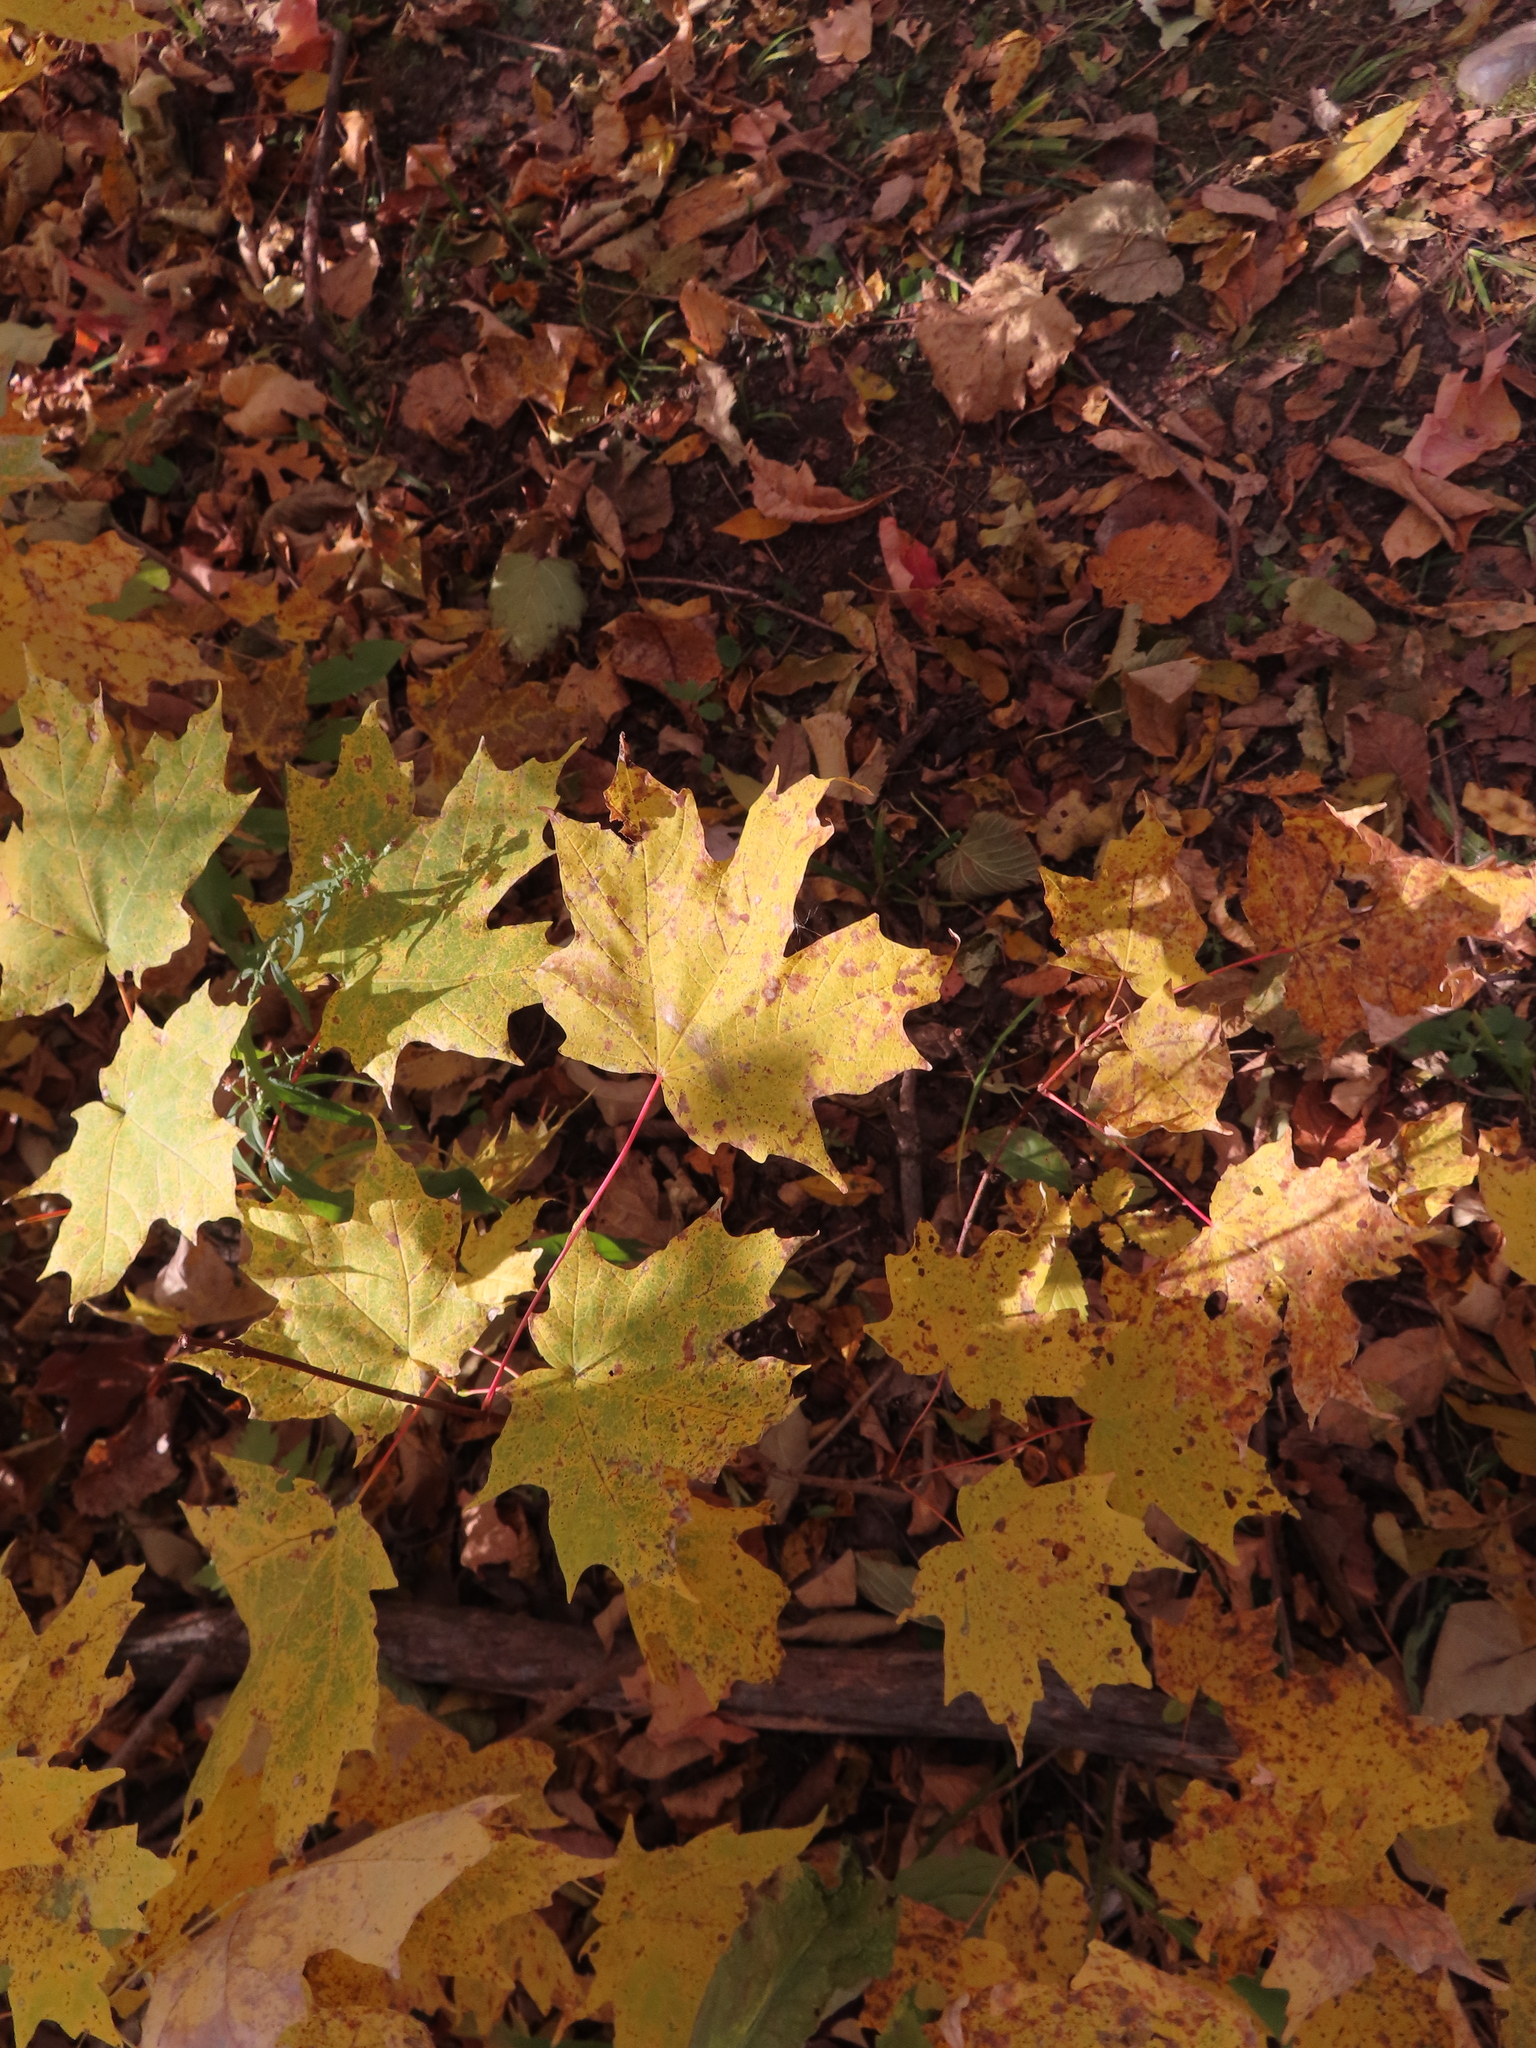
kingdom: Plantae
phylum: Tracheophyta
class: Magnoliopsida
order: Sapindales
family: Sapindaceae
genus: Acer
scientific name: Acer saccharum
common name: Sugar maple
